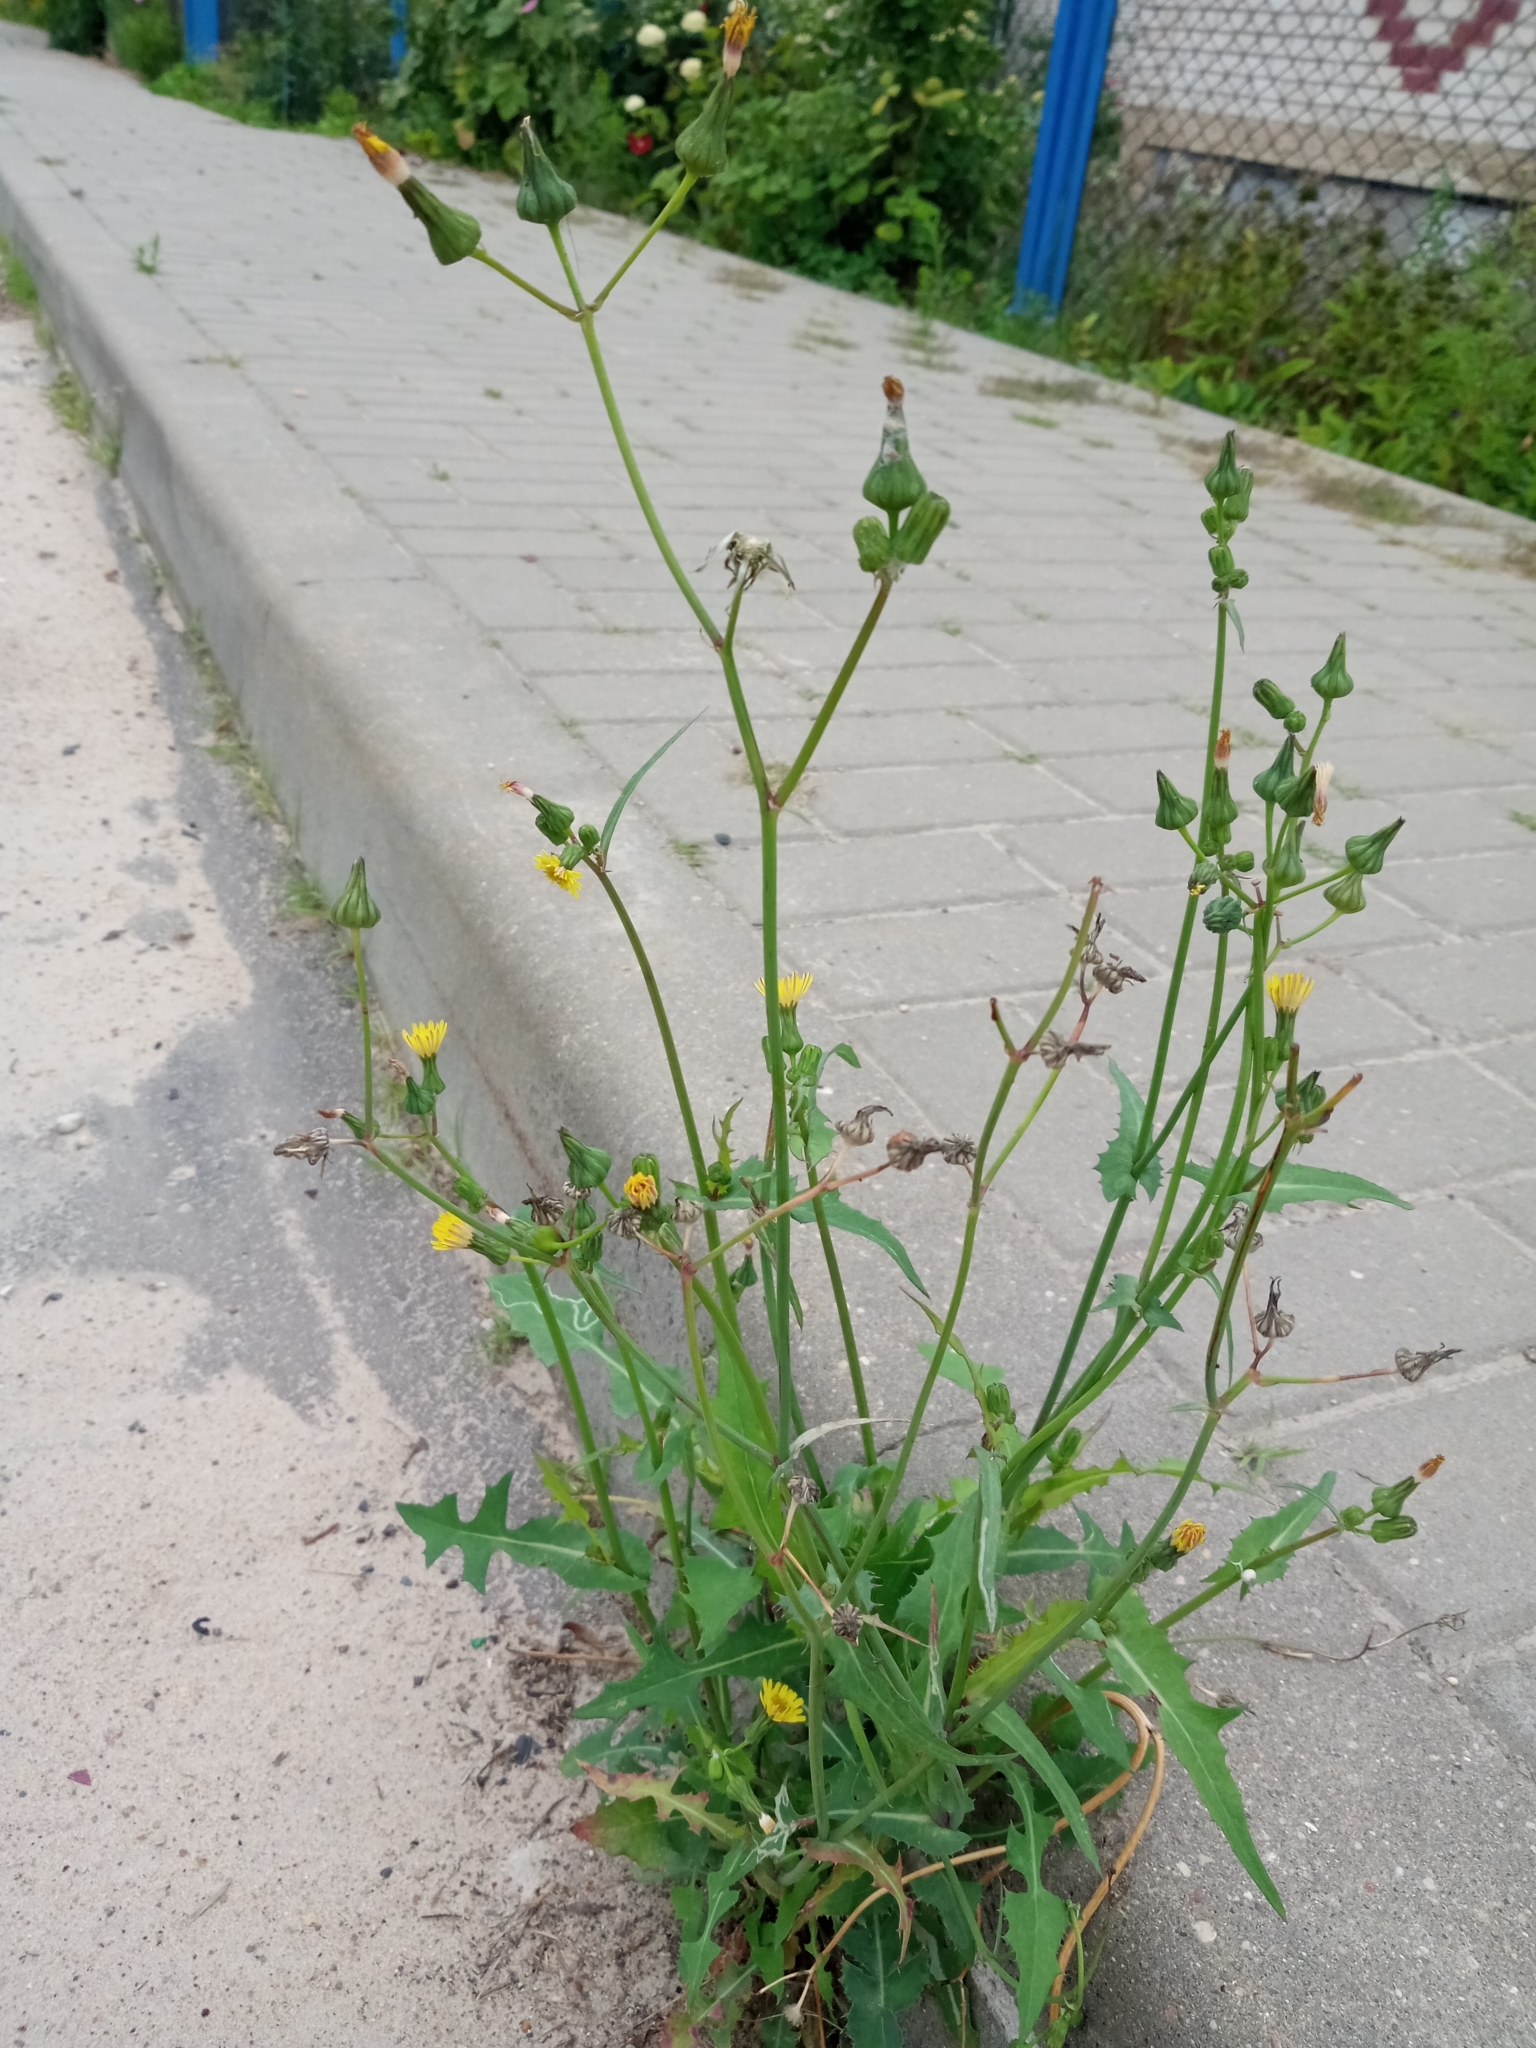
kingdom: Plantae
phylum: Tracheophyta
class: Magnoliopsida
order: Asterales
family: Asteraceae
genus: Sonchus
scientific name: Sonchus oleraceus
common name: Common sowthistle
